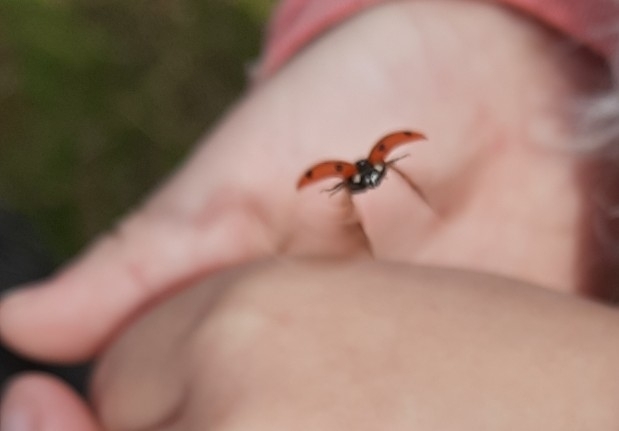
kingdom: Animalia
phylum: Arthropoda
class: Insecta
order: Coleoptera
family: Coccinellidae
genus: Coccinella
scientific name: Coccinella septempunctata
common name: Sevenspotted lady beetle
